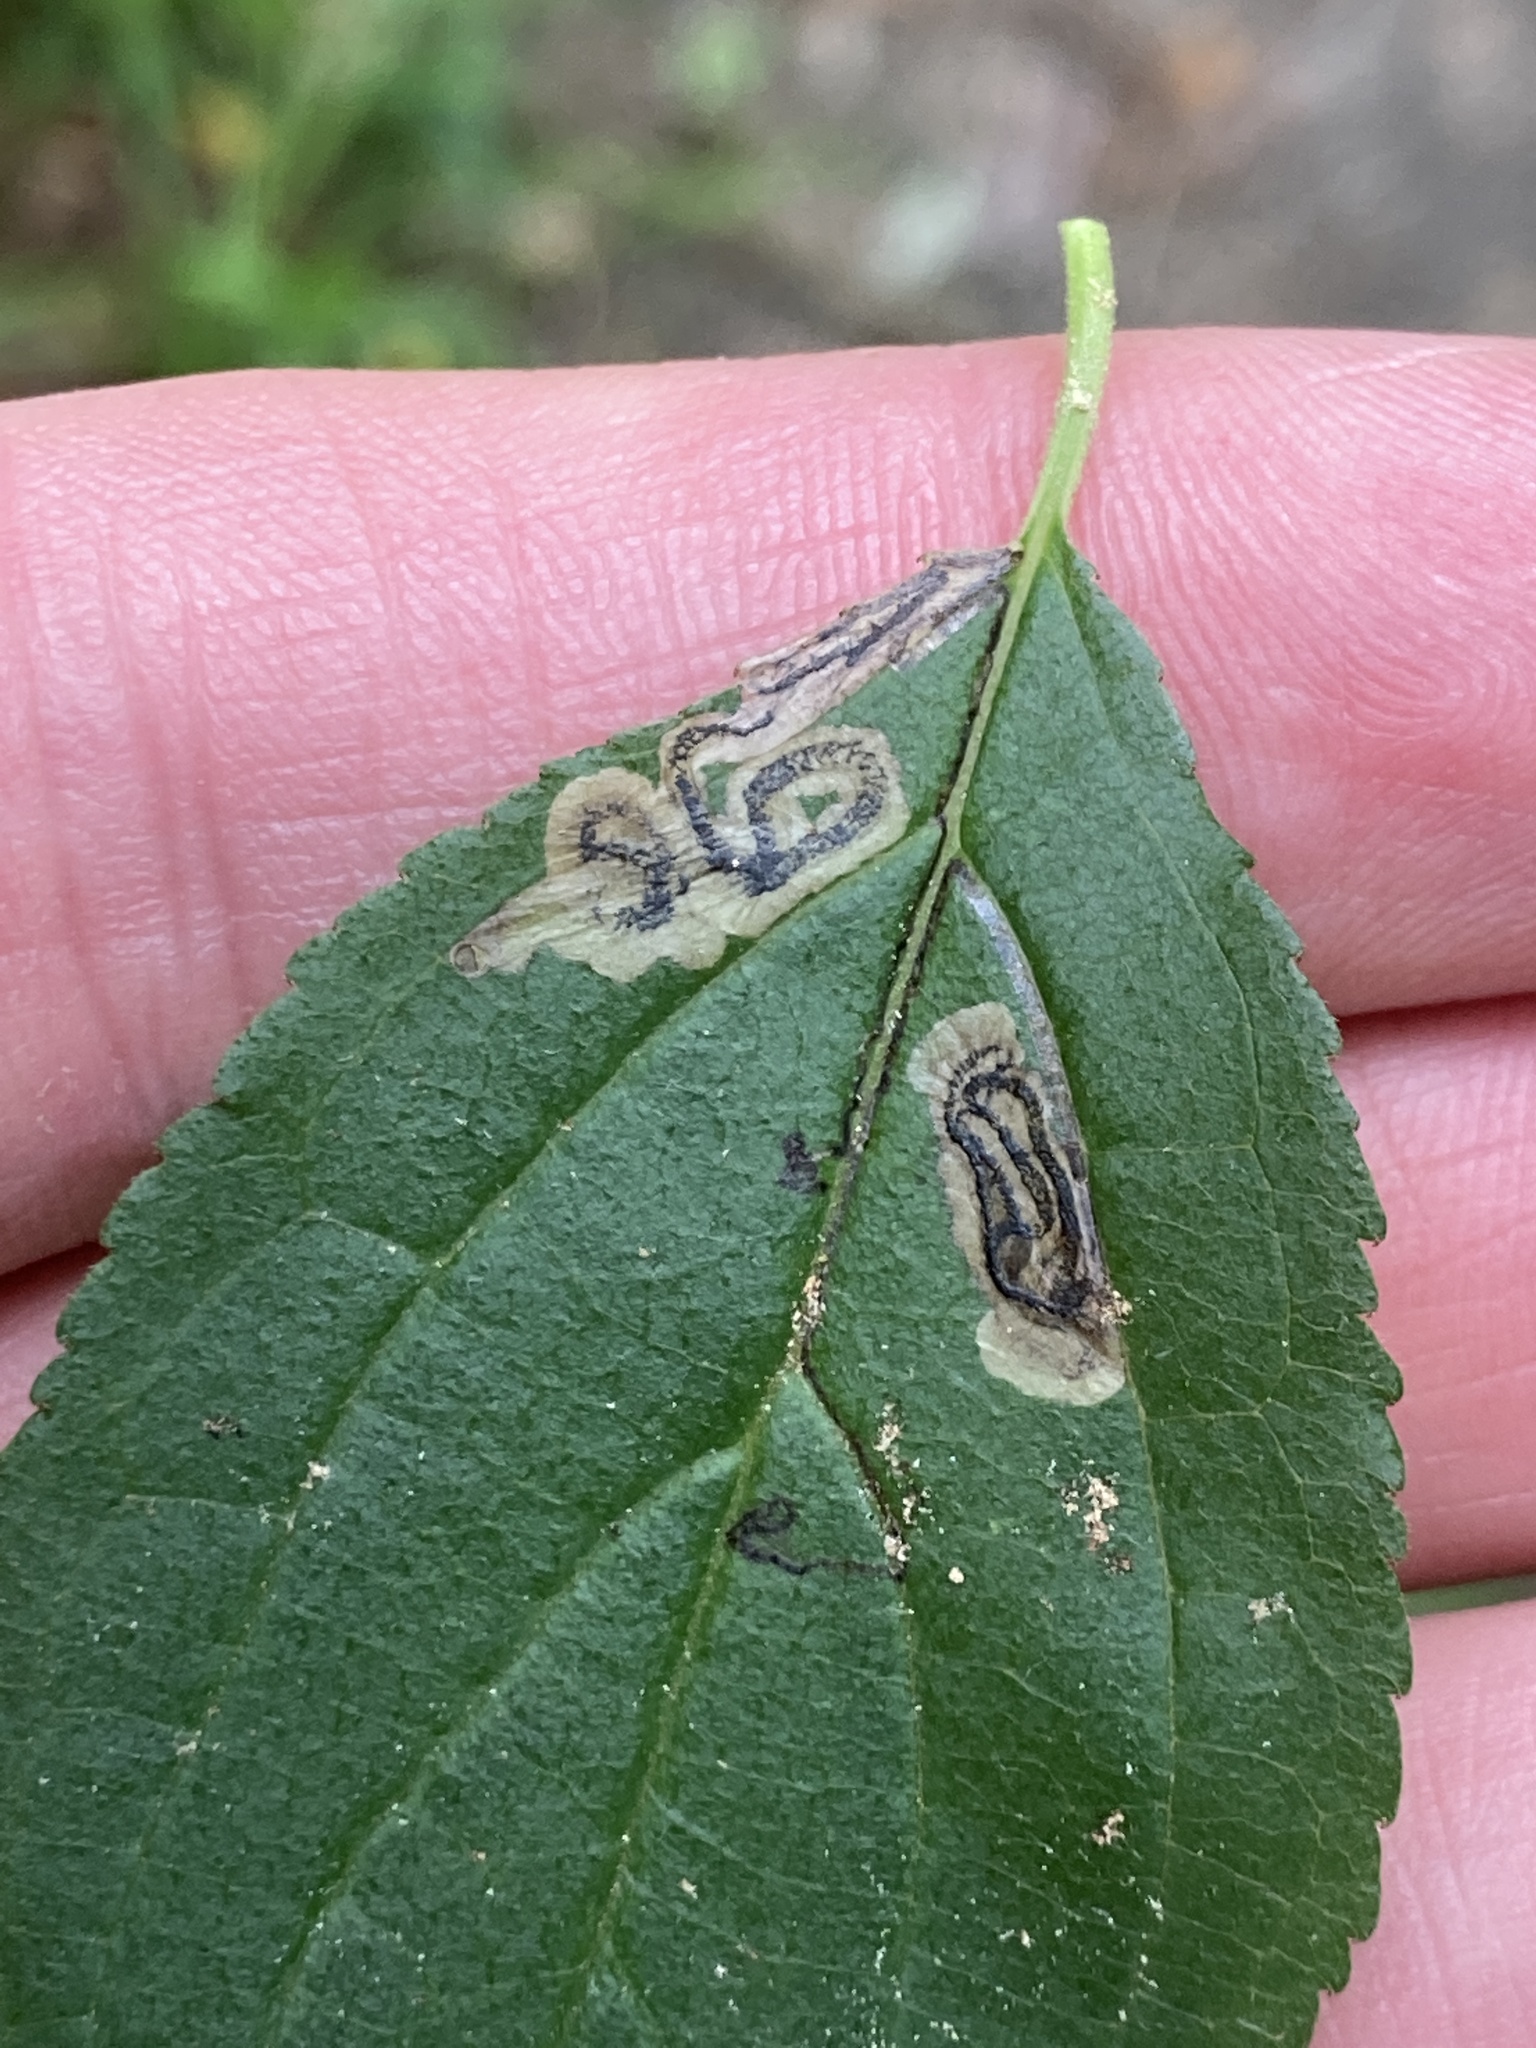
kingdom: Animalia
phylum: Arthropoda
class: Insecta
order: Lepidoptera
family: Nepticulidae
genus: Stigmella
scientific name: Stigmella rhamnicola
